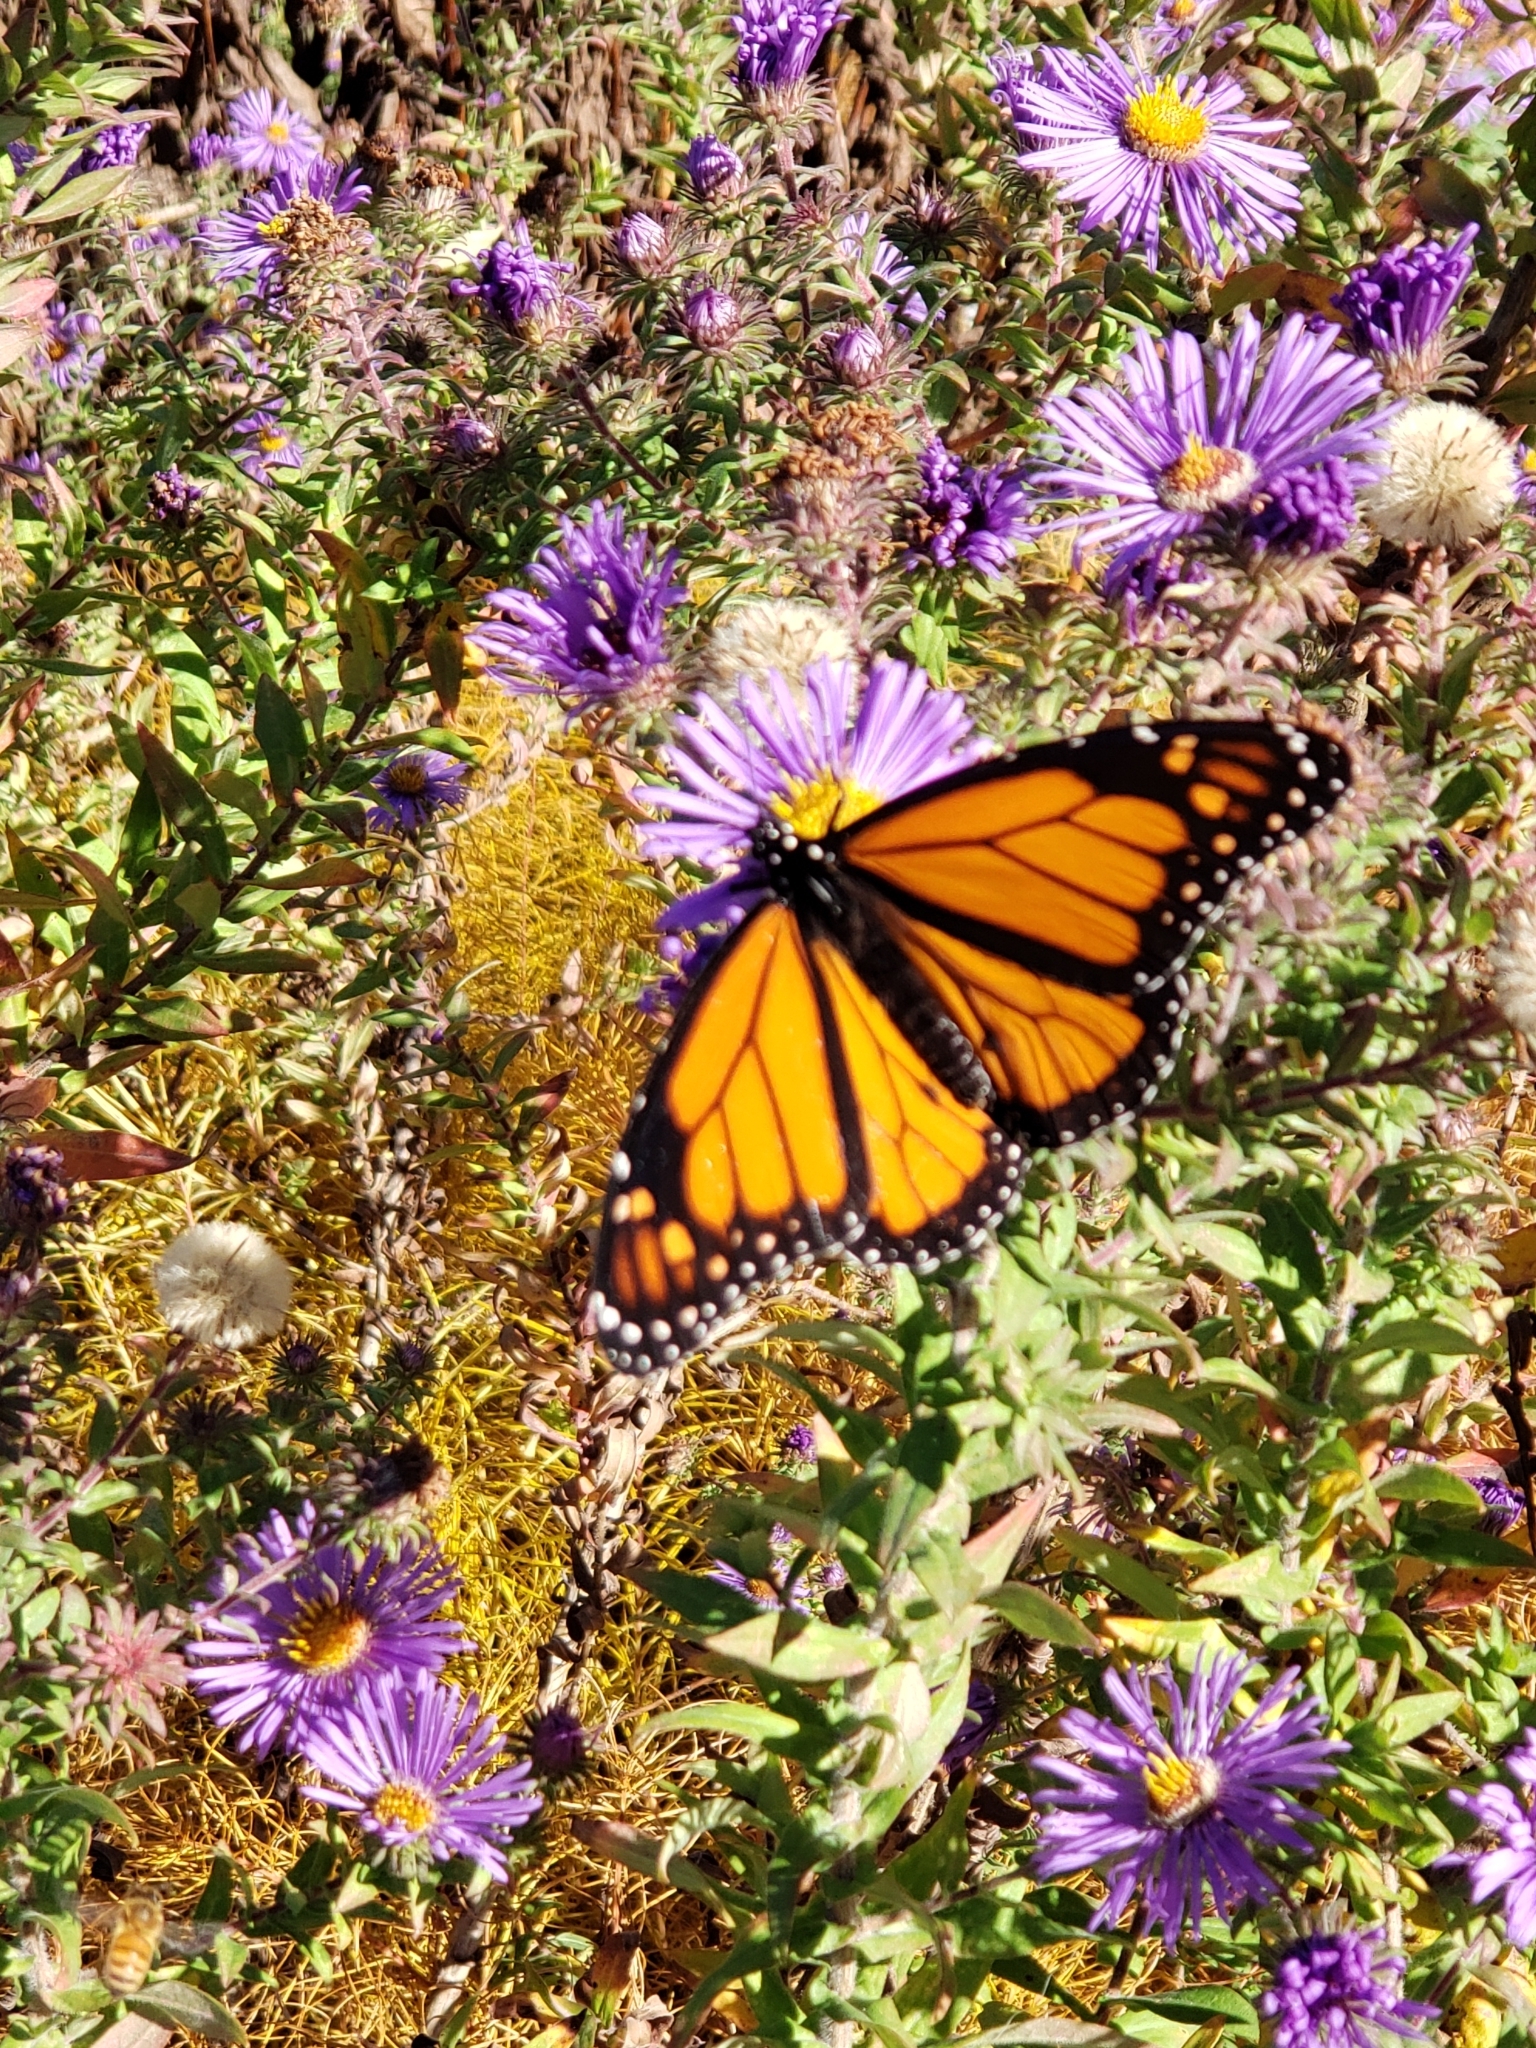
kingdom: Plantae
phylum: Tracheophyta
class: Magnoliopsida
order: Asterales
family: Asteraceae
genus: Symphyotrichum
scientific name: Symphyotrichum novae-angliae
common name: Michaelmas daisy
